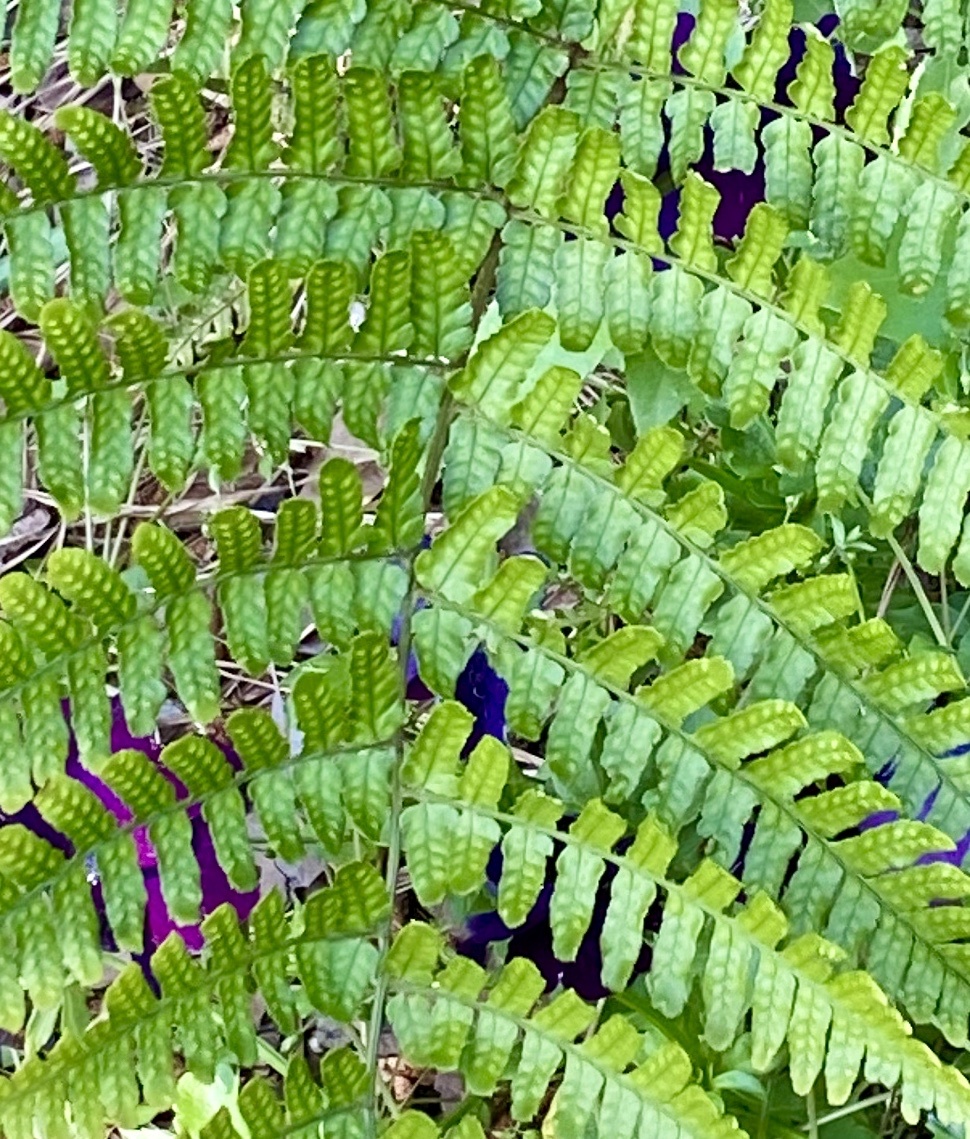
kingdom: Plantae
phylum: Tracheophyta
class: Polypodiopsida
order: Polypodiales
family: Dryopteridaceae
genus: Dryopteris
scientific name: Dryopteris erythrosora
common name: Autumn fern
